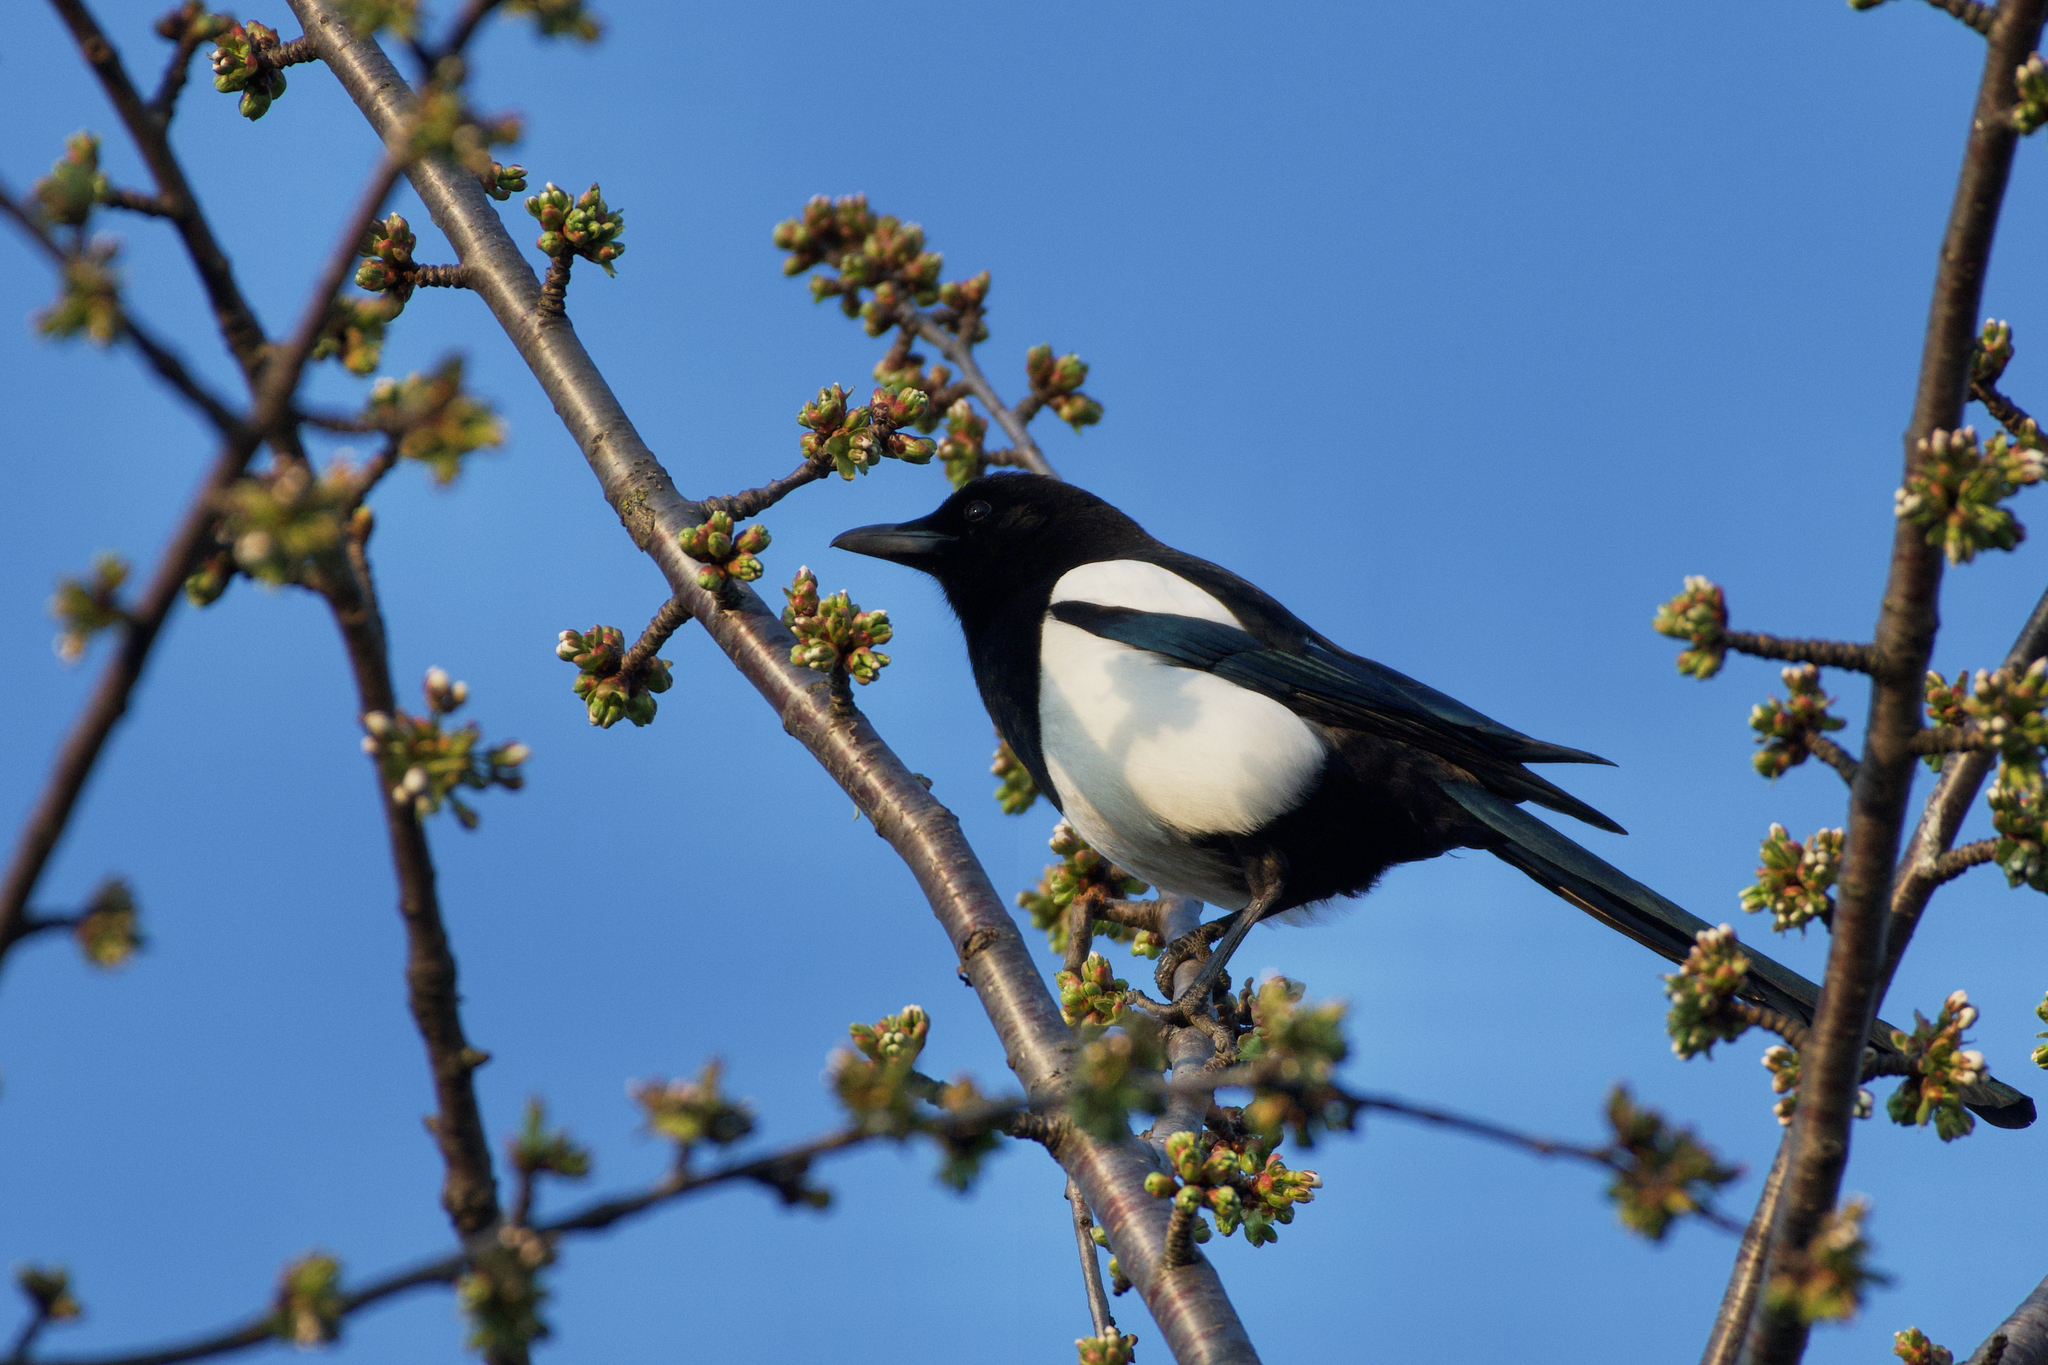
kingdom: Animalia
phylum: Chordata
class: Aves
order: Passeriformes
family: Corvidae
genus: Pica
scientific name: Pica pica
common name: Eurasian magpie
